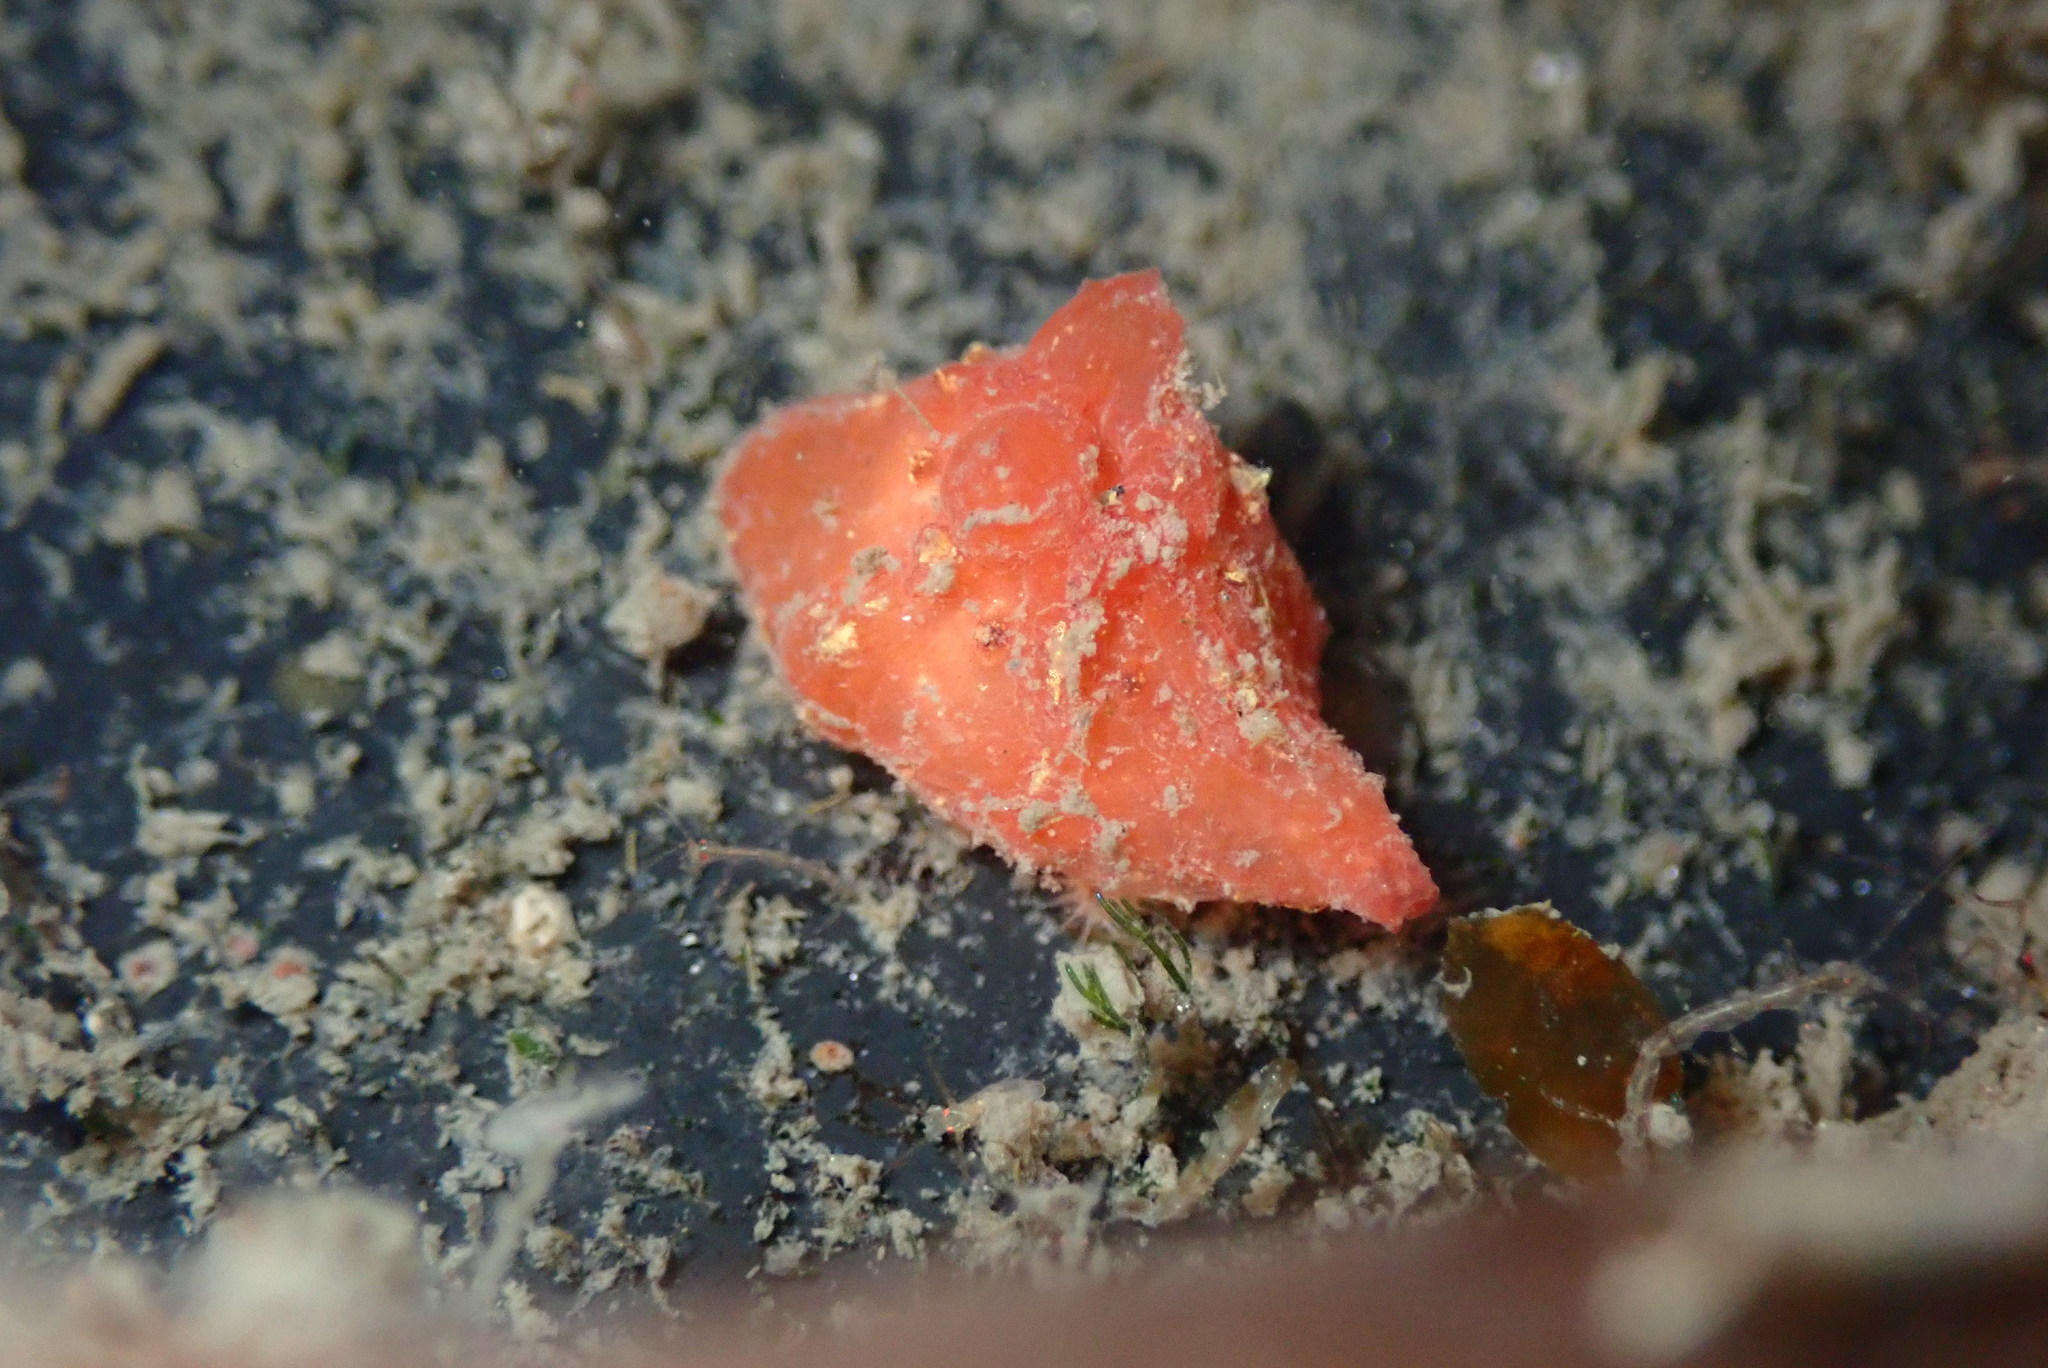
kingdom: Animalia
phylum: Mollusca
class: Gastropoda
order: Littorinimorpha
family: Velutinidae
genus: Hainotis
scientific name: Hainotis sharonae
